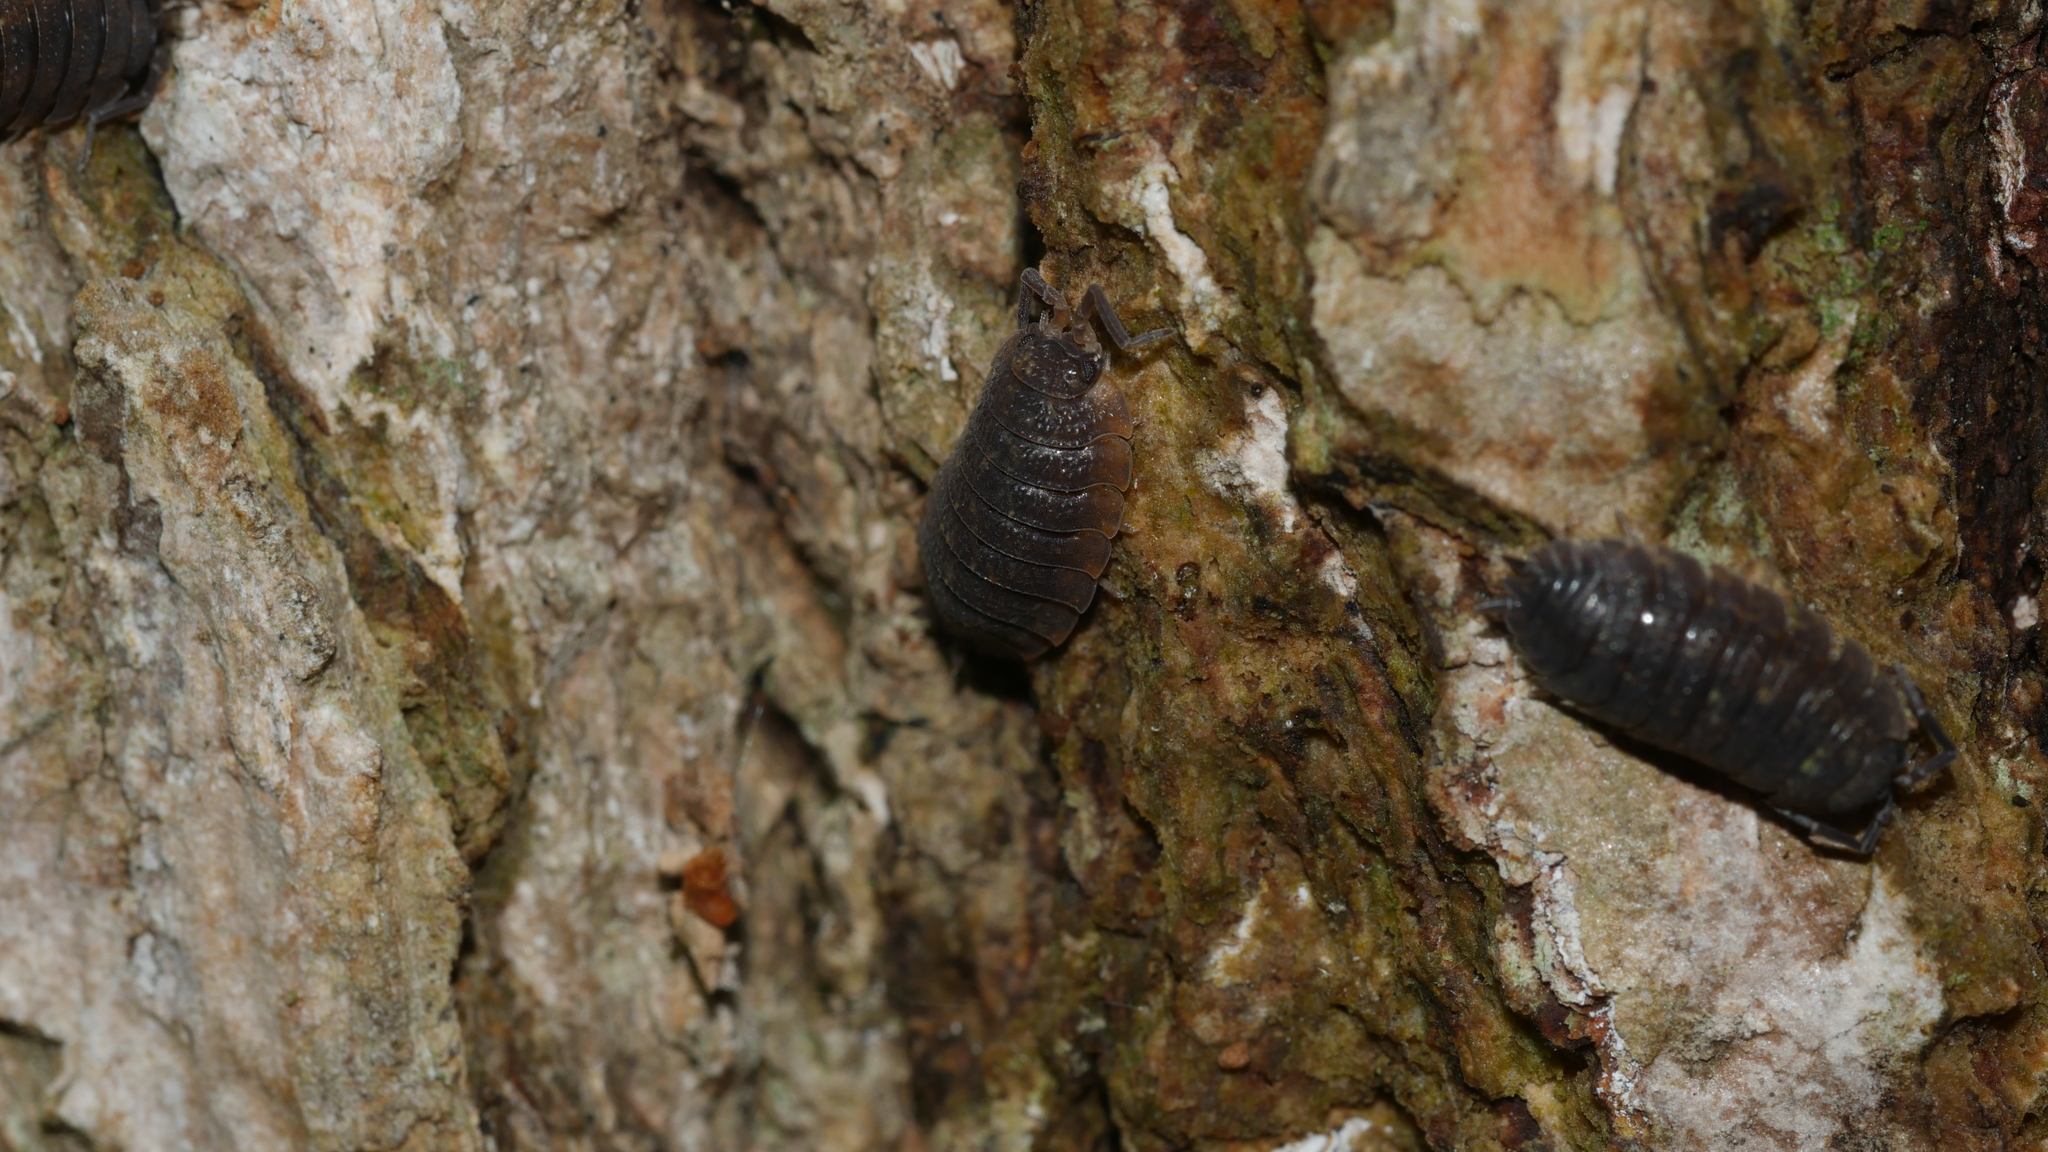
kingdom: Animalia
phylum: Arthropoda
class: Malacostraca
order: Isopoda
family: Porcellionidae
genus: Porcellio
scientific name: Porcellio scaber
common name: Common rough woodlouse
